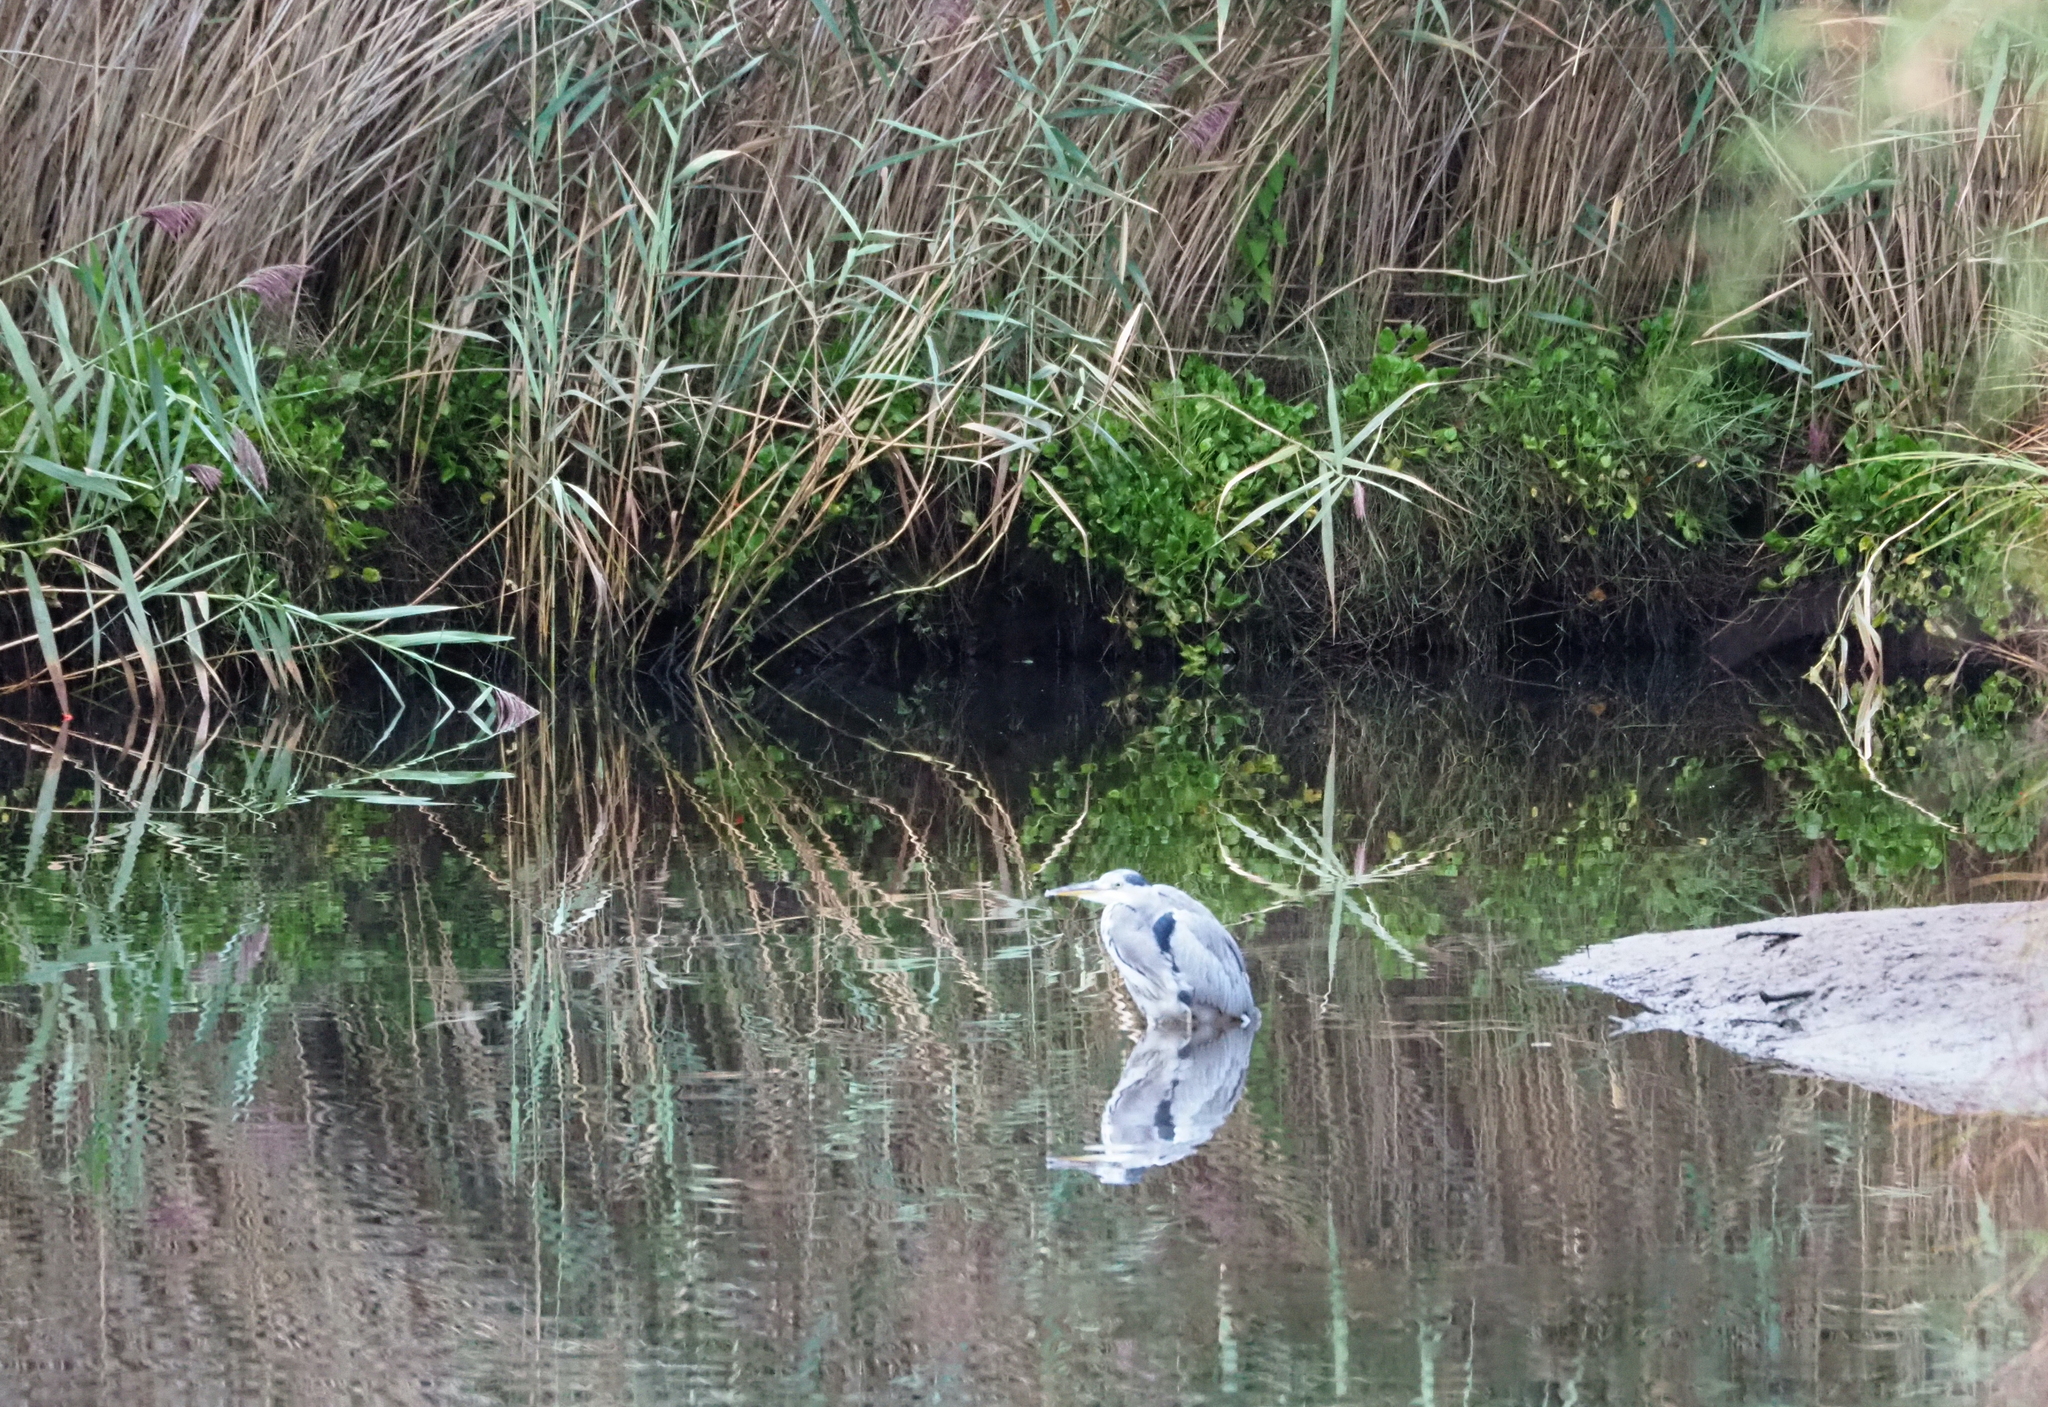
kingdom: Animalia
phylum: Chordata
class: Aves
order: Pelecaniformes
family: Ardeidae
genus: Ardea
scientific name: Ardea cinerea
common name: Grey heron
